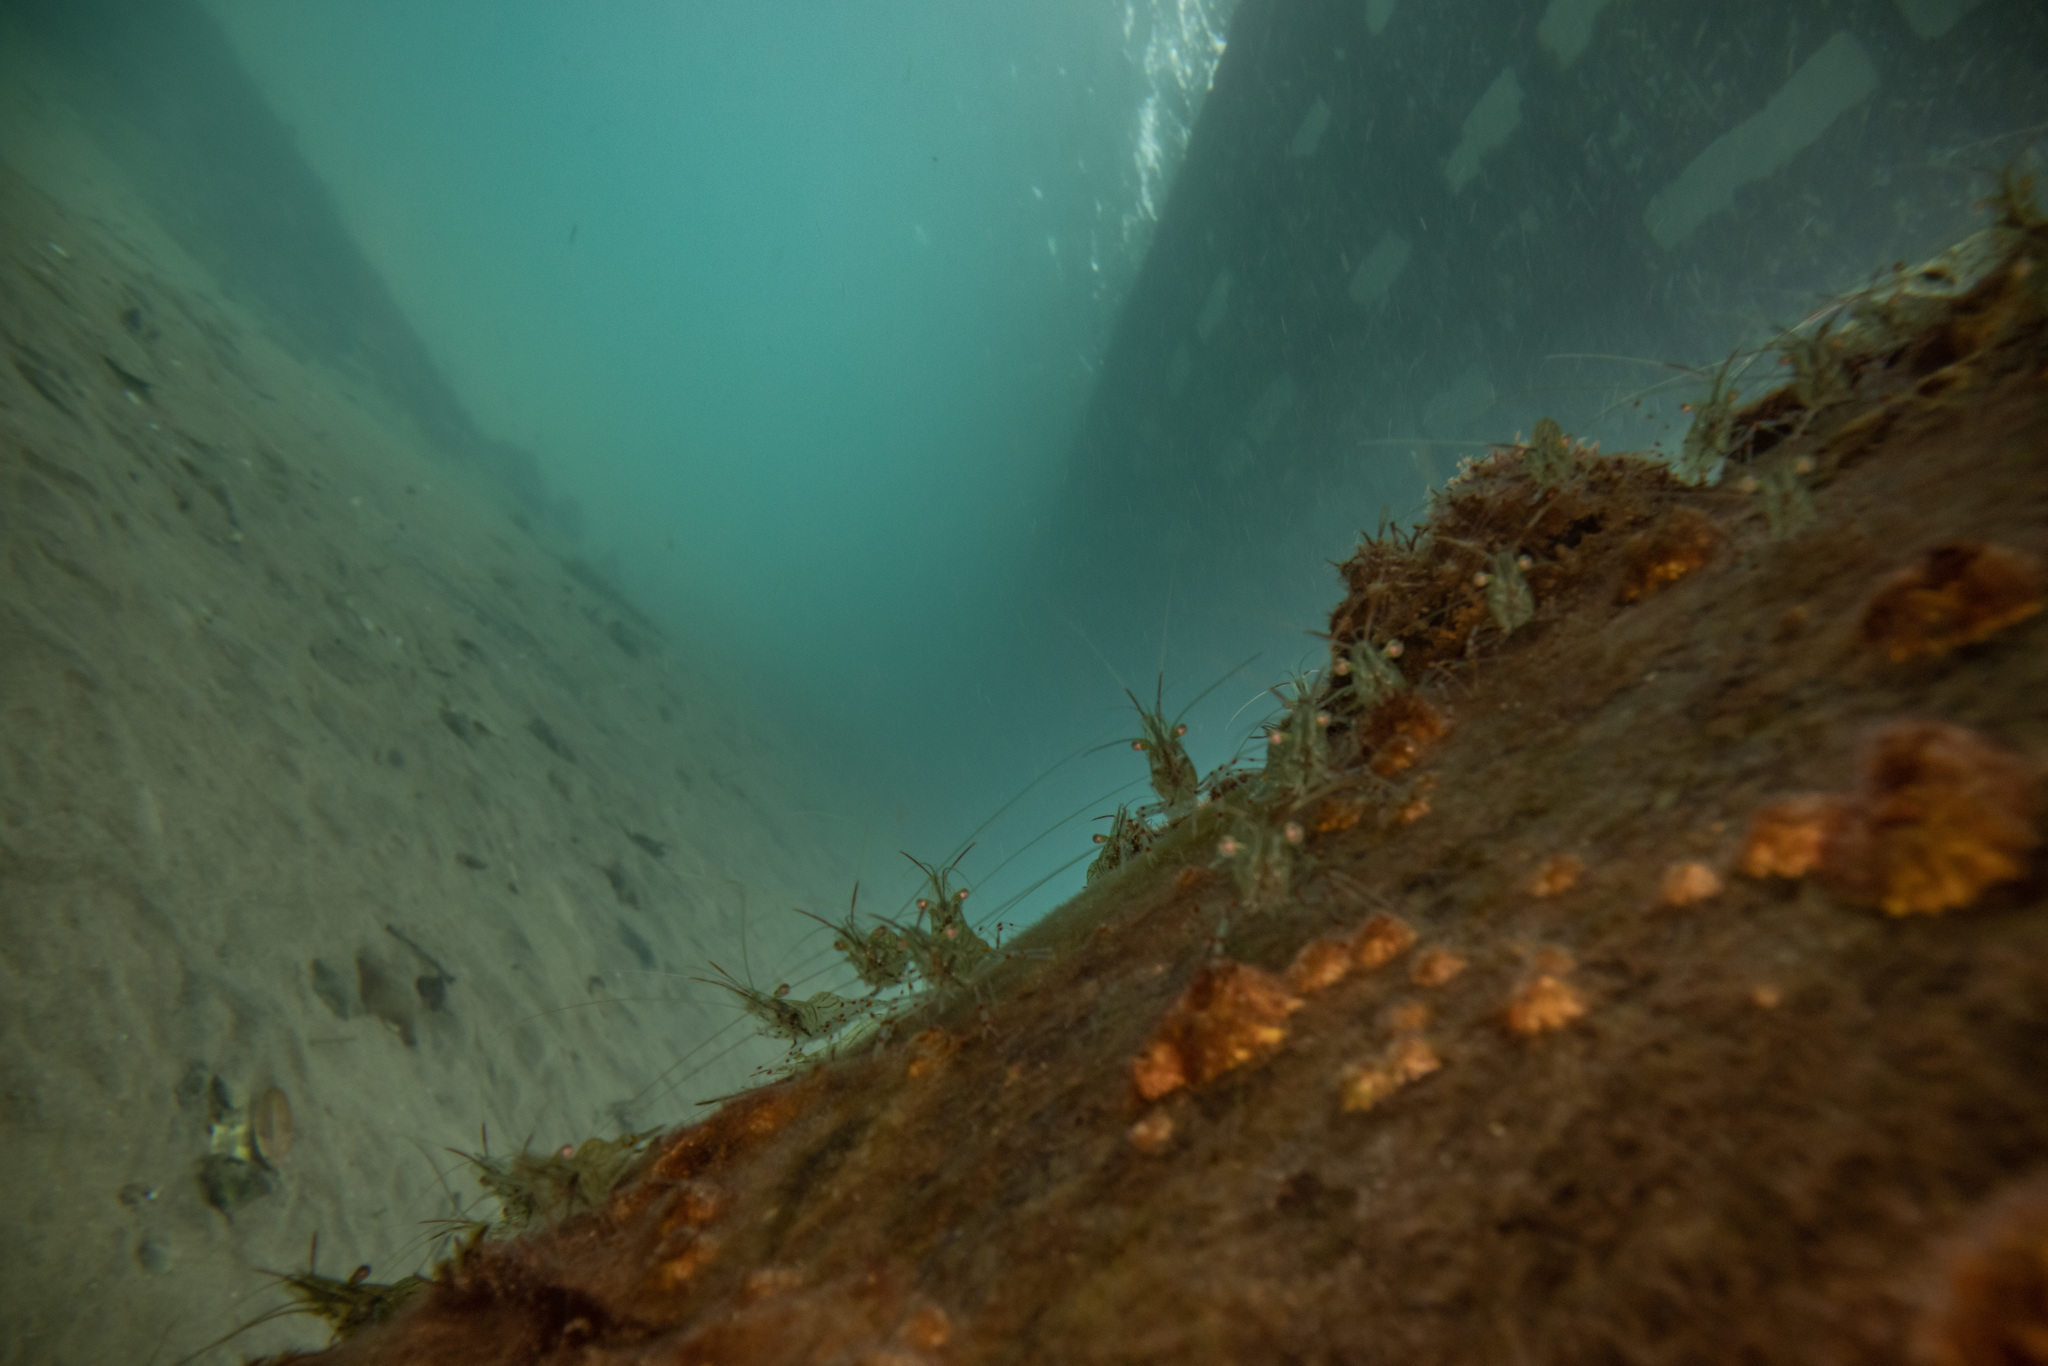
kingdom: Animalia
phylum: Arthropoda
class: Malacostraca
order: Decapoda
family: Palaemonidae
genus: Palaemon
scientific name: Palaemon affinis
